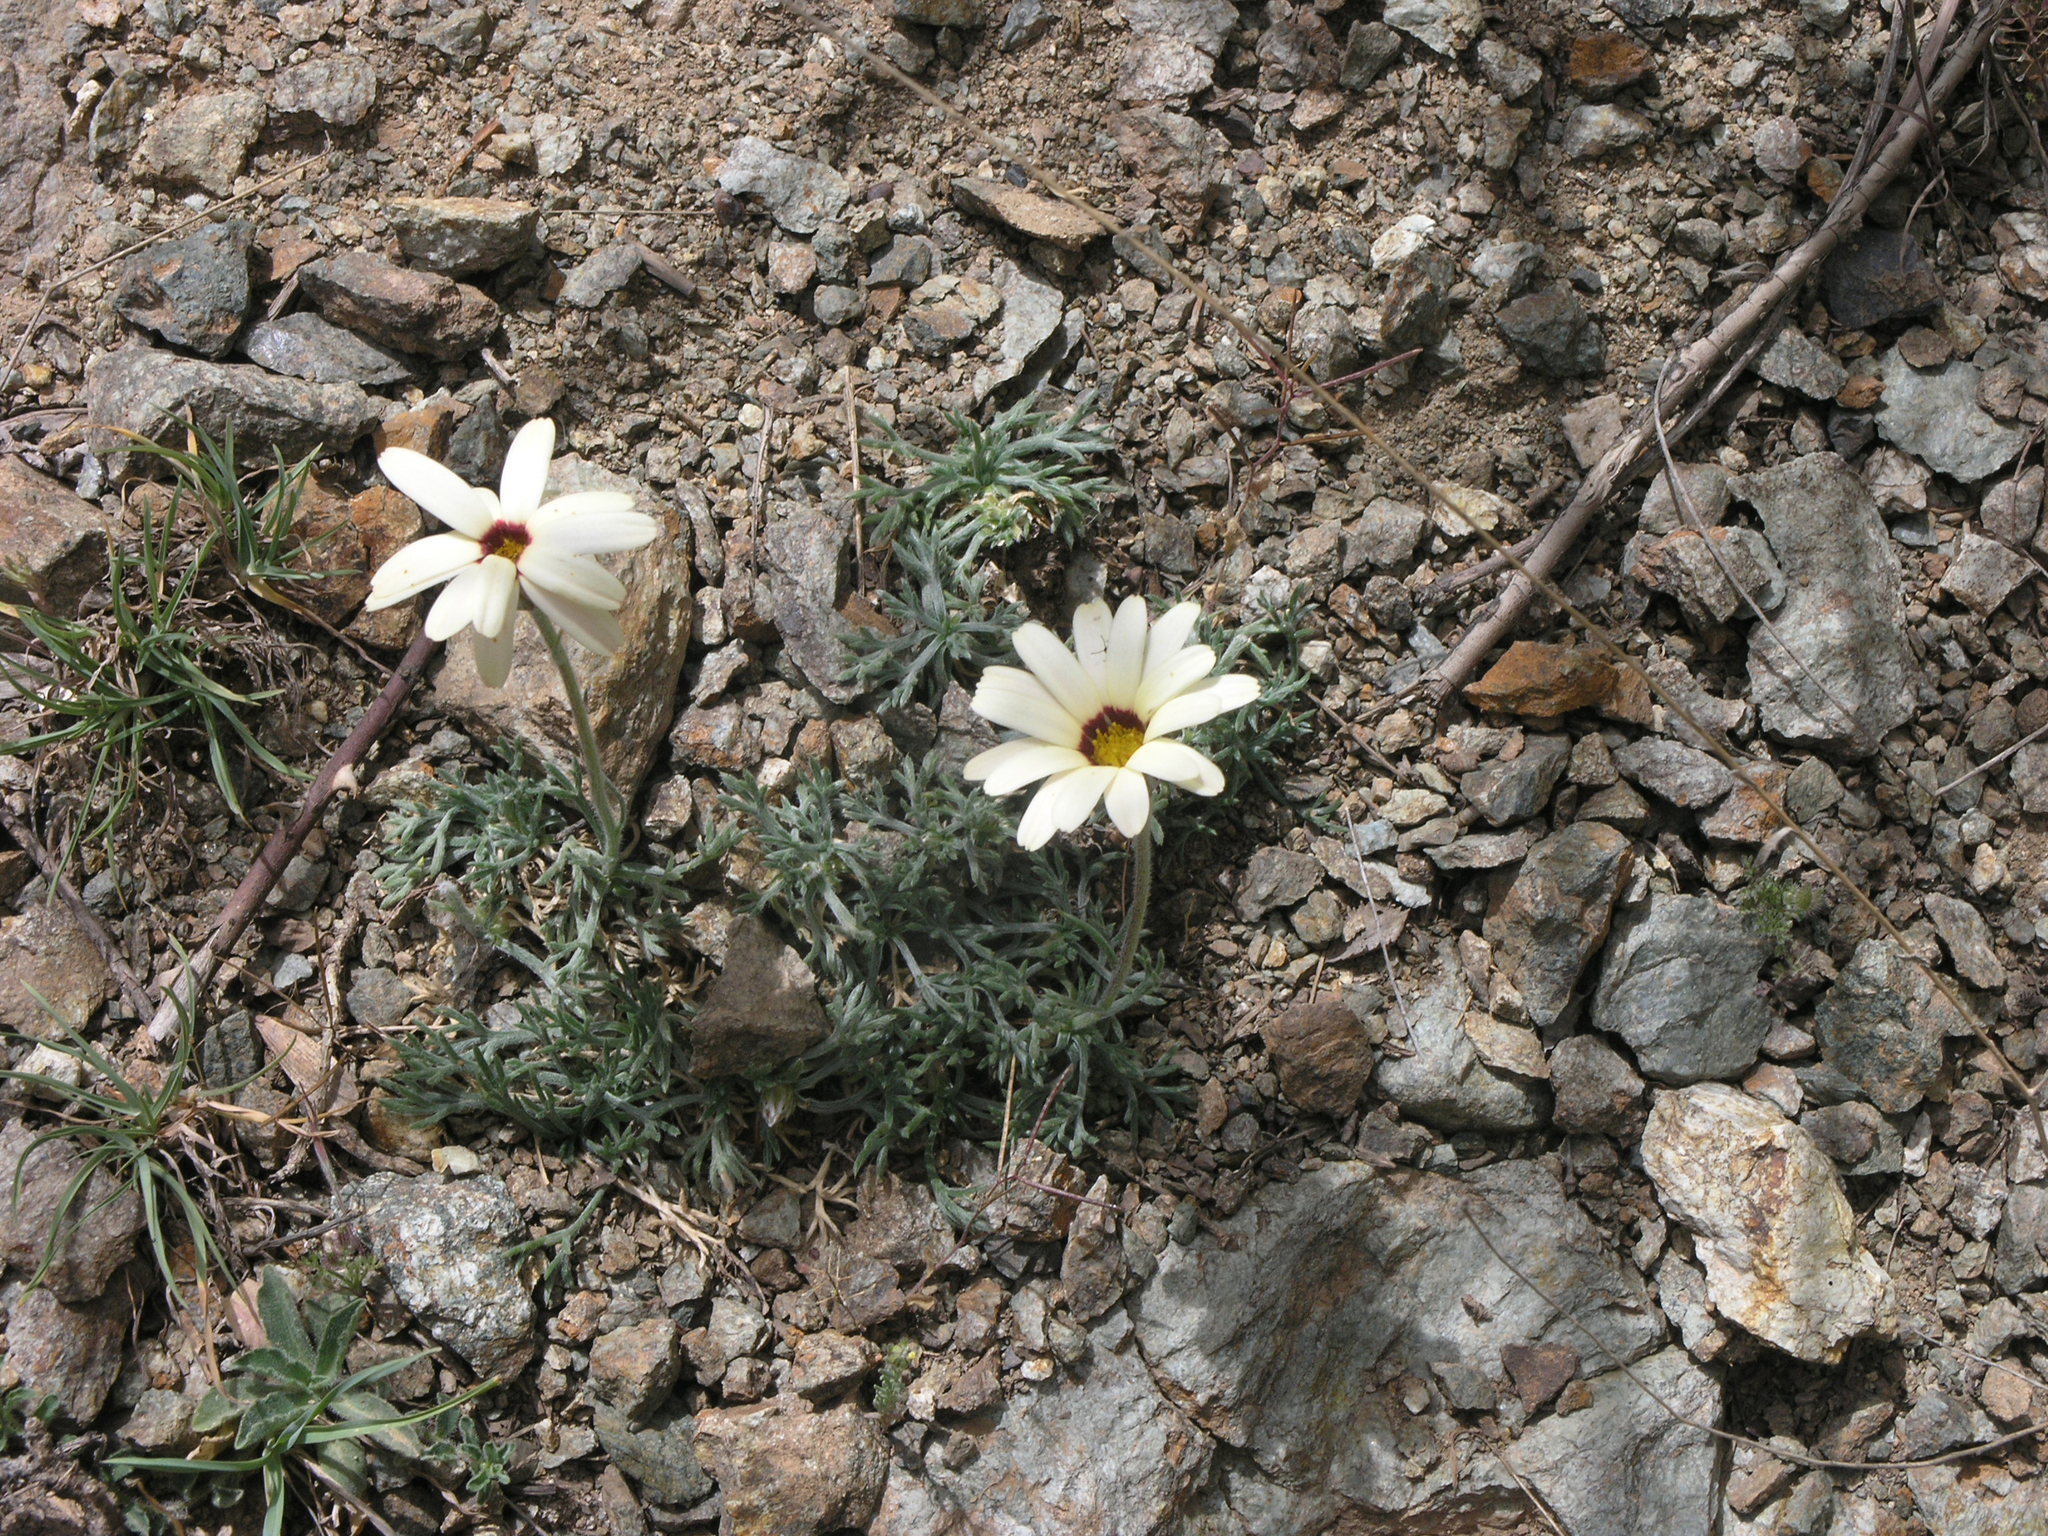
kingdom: Plantae
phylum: Tracheophyta
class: Magnoliopsida
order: Asterales
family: Asteraceae
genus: Rhodanthemum
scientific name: Rhodanthemum catananche
